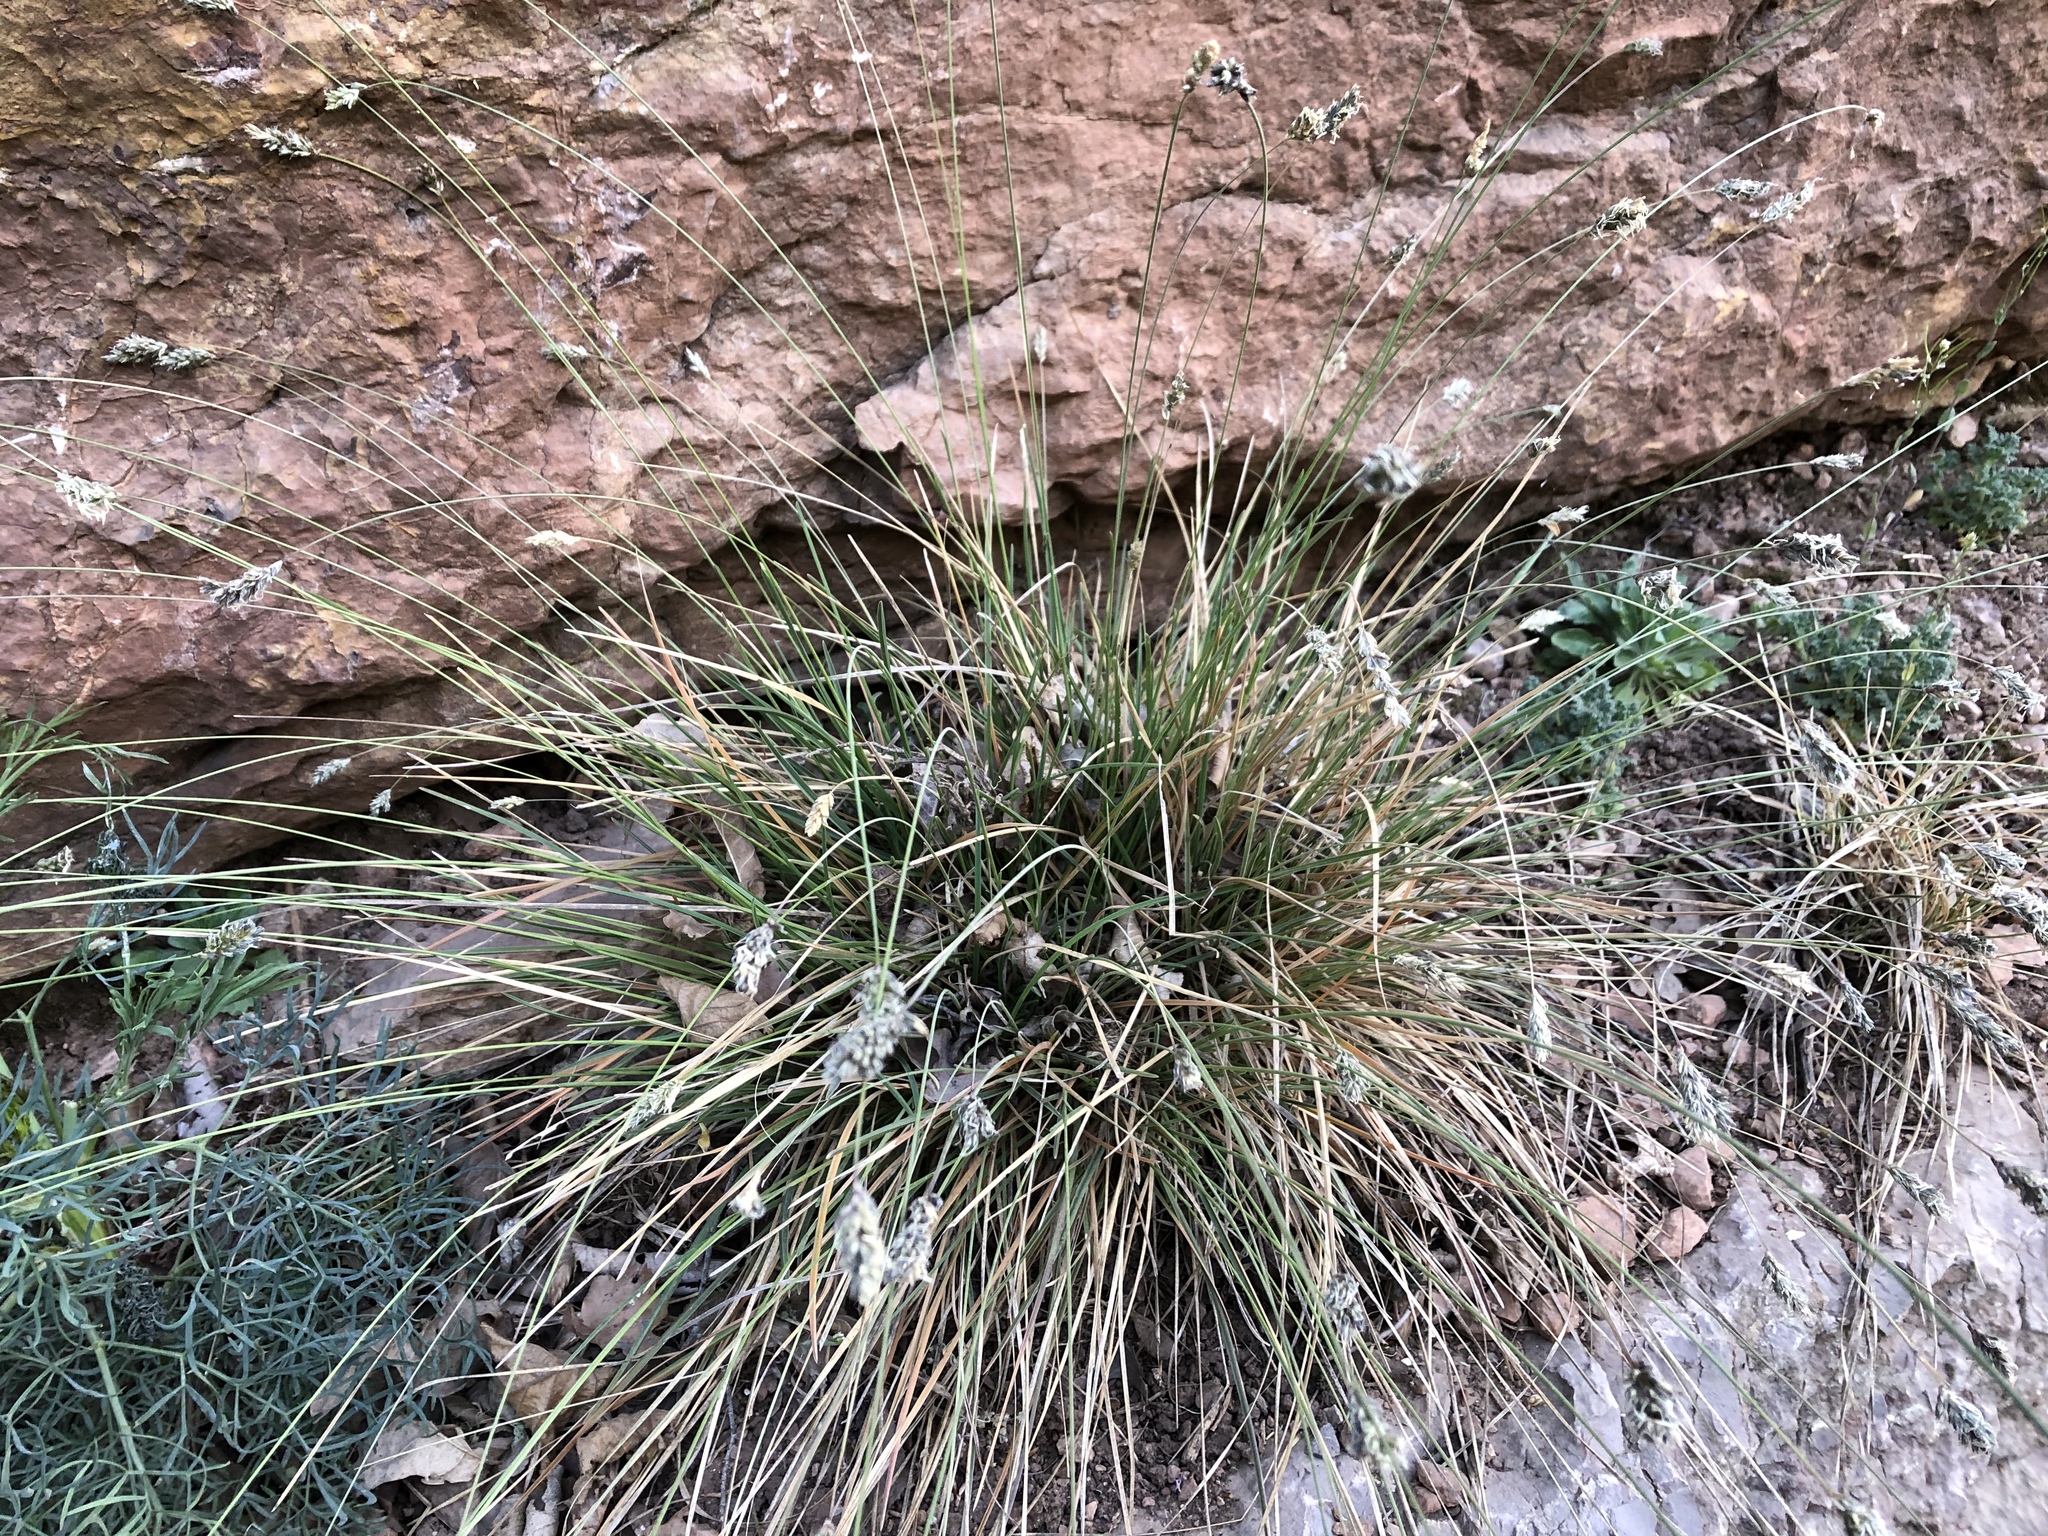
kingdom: Plantae
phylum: Tracheophyta
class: Liliopsida
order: Poales
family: Poaceae
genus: Sesleria
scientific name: Sesleria caerulea
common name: Blue moor-grass
